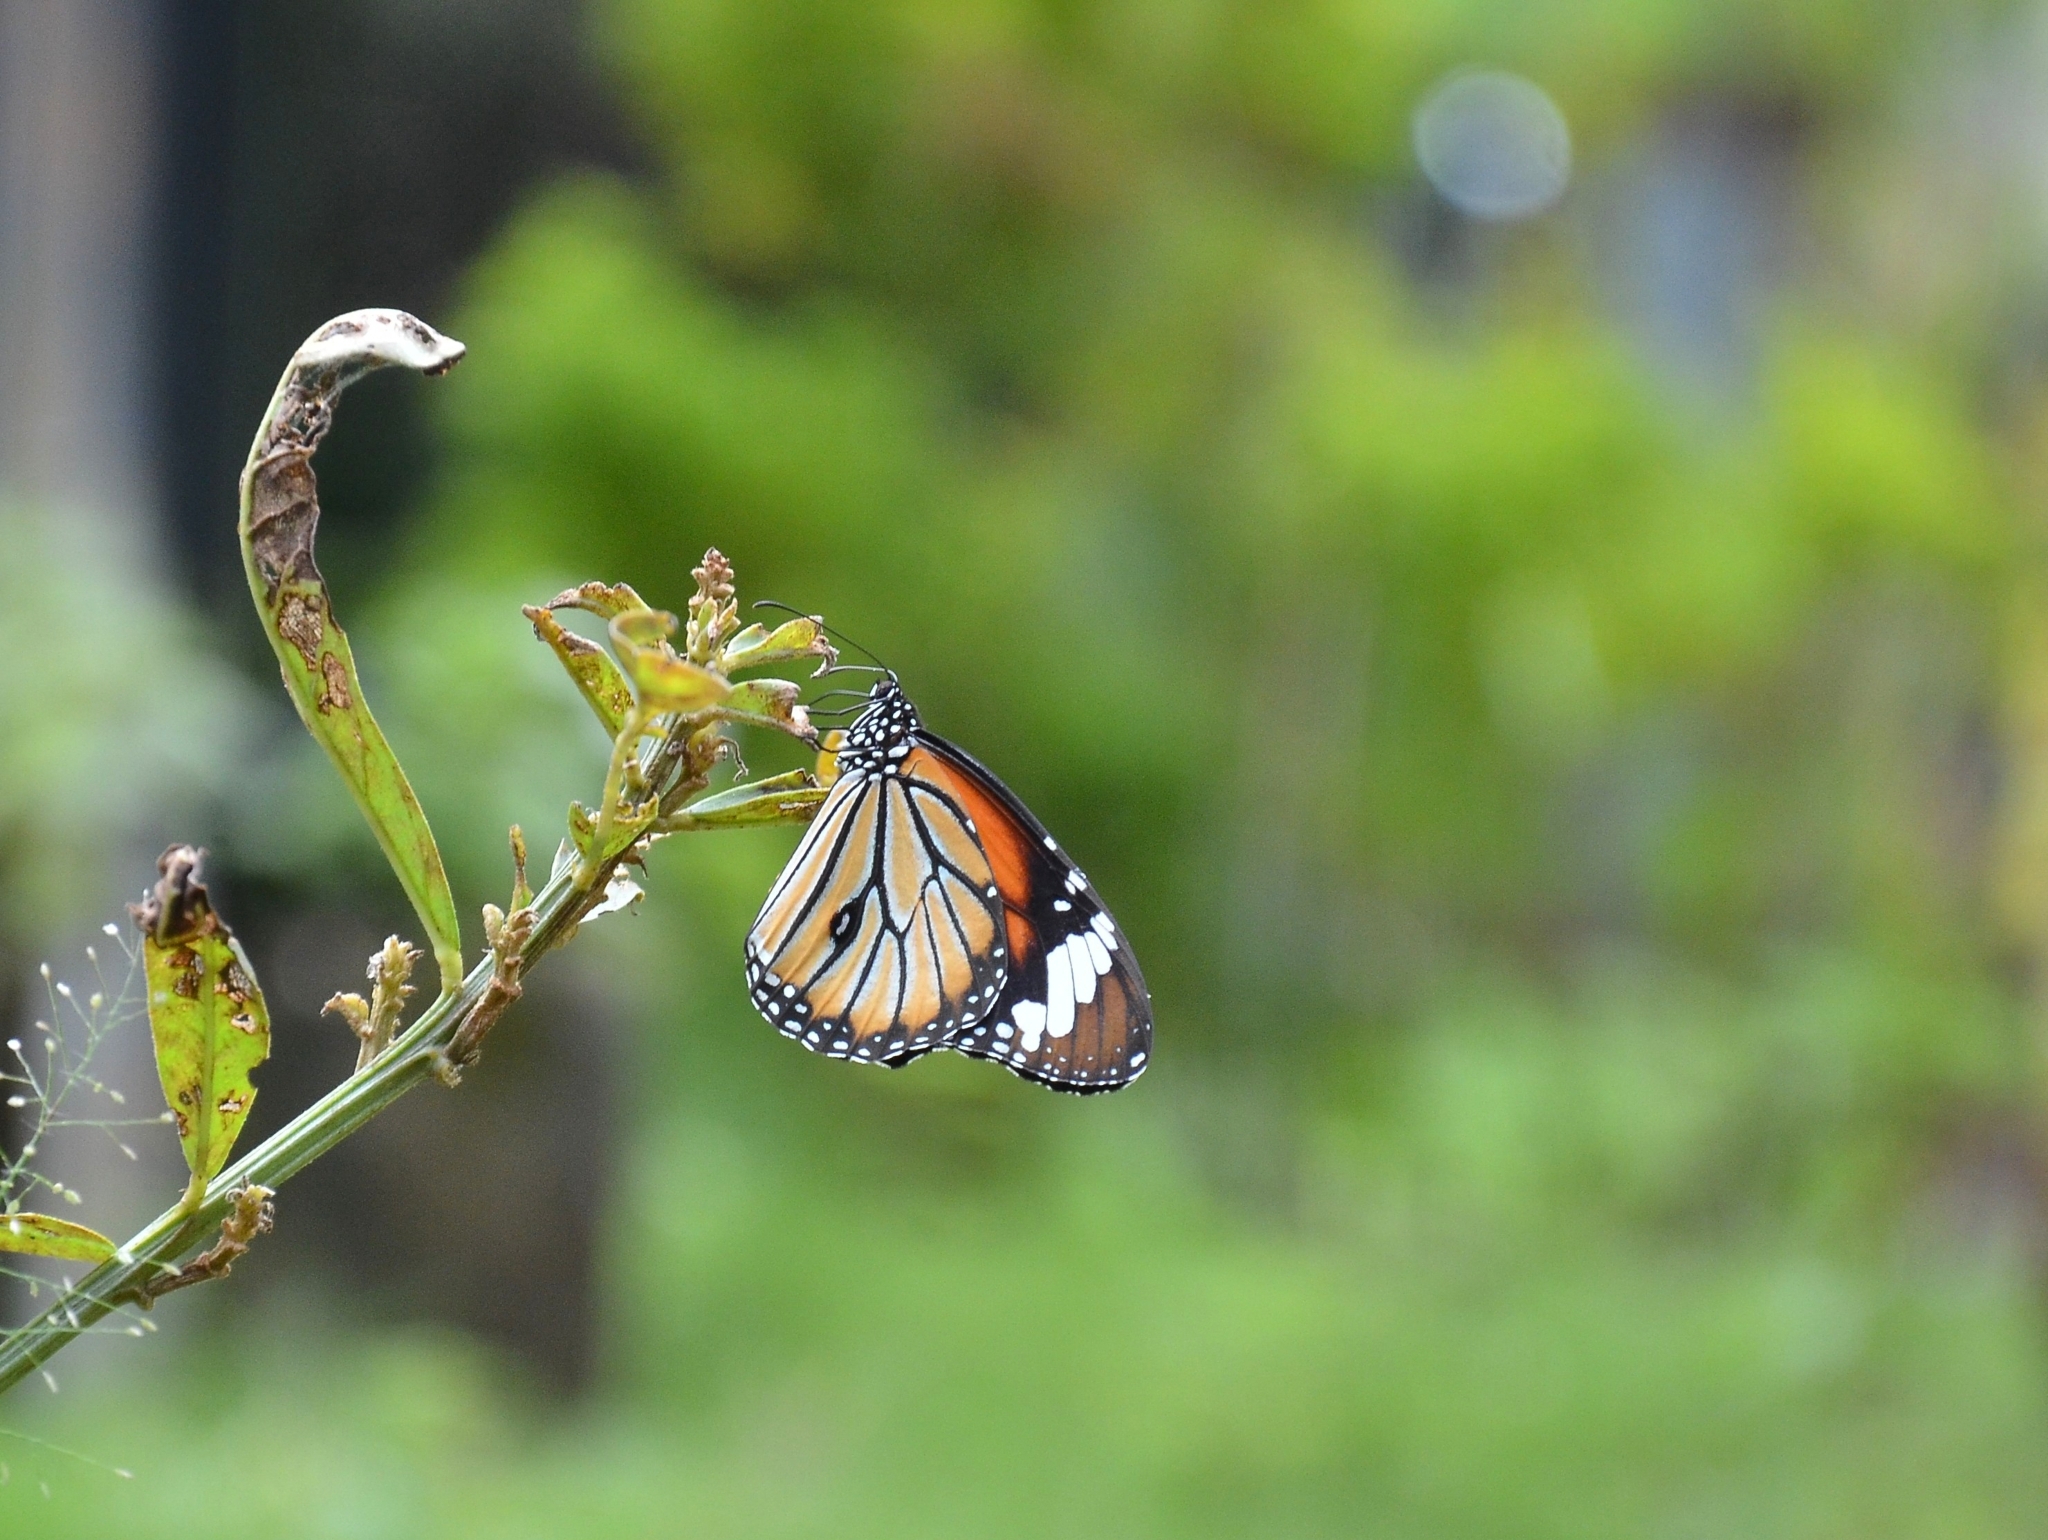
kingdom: Animalia
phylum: Arthropoda
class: Insecta
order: Lepidoptera
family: Nymphalidae
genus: Danaus
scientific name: Danaus genutia
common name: Common tiger butterfly
